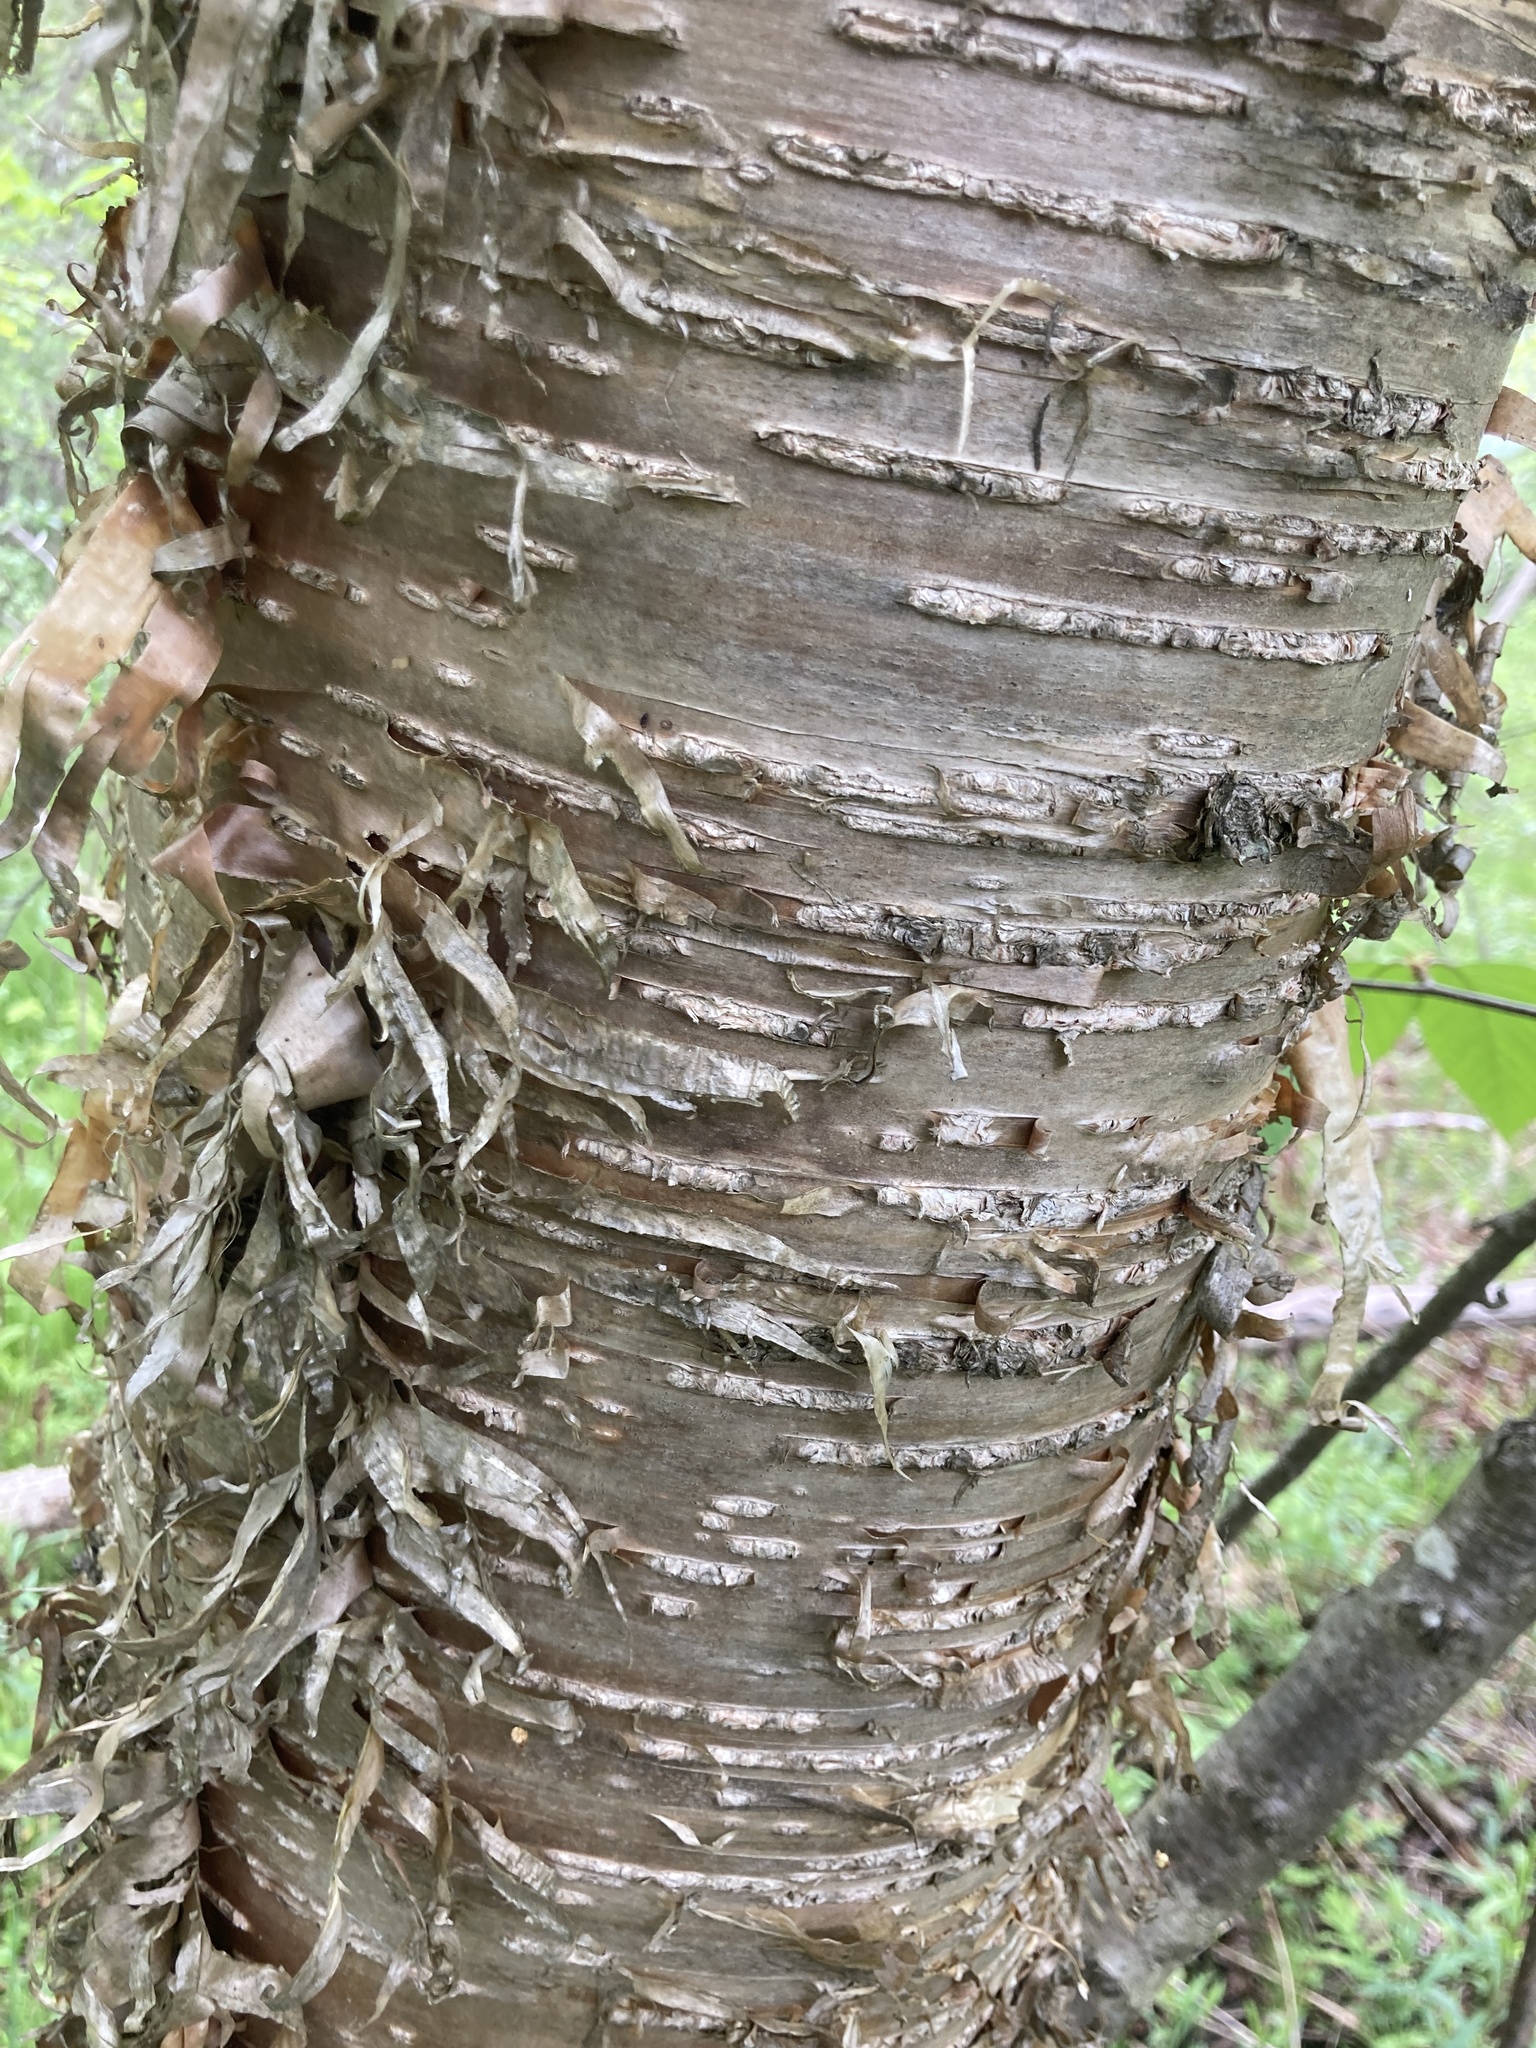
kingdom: Plantae
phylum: Tracheophyta
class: Magnoliopsida
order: Fagales
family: Betulaceae
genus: Betula
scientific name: Betula alleghaniensis
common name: Yellow birch
